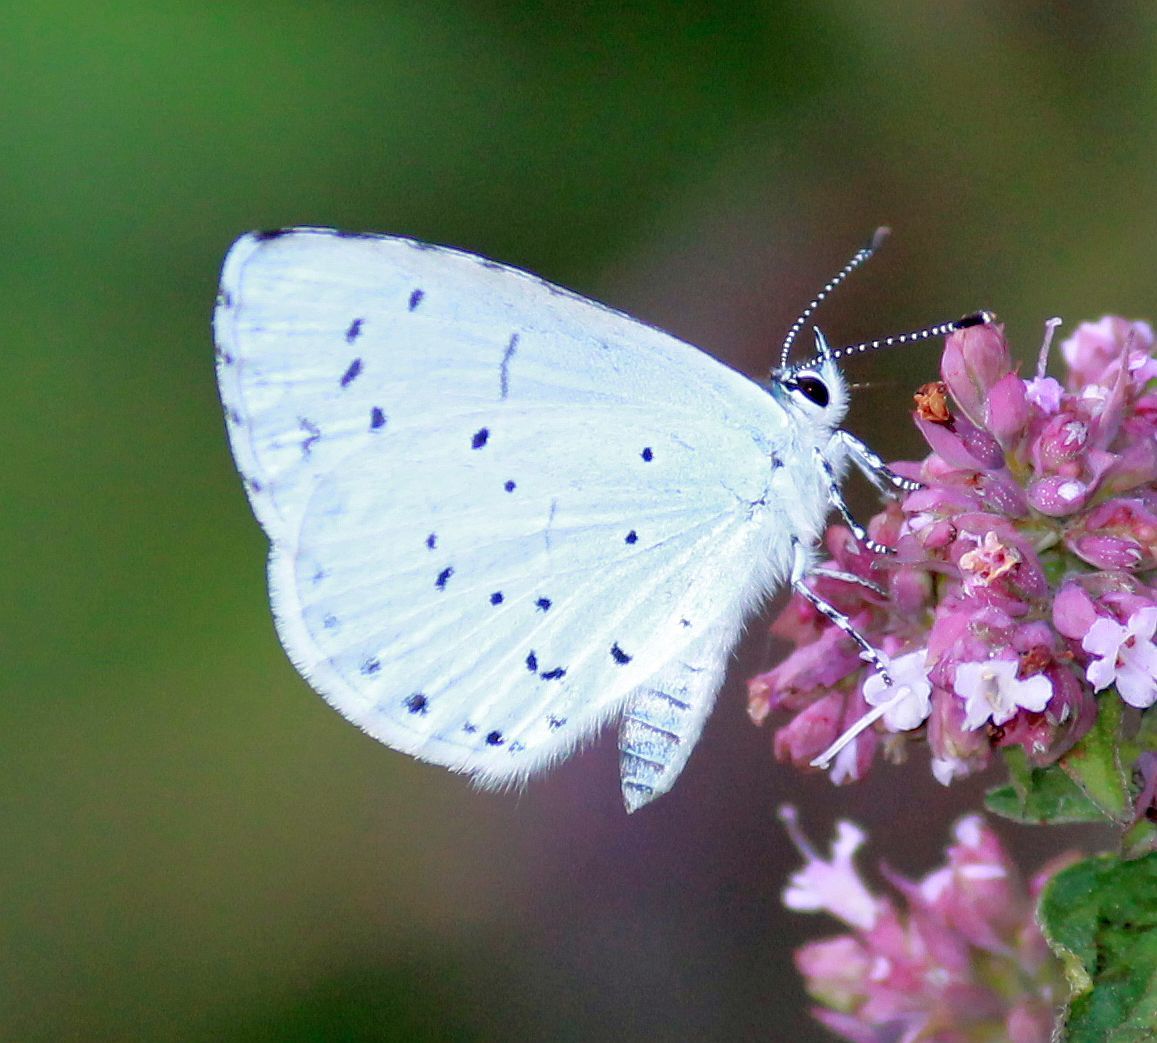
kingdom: Animalia
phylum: Arthropoda
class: Insecta
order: Lepidoptera
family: Lycaenidae
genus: Celastrina
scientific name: Celastrina argiolus
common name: Holly blue
